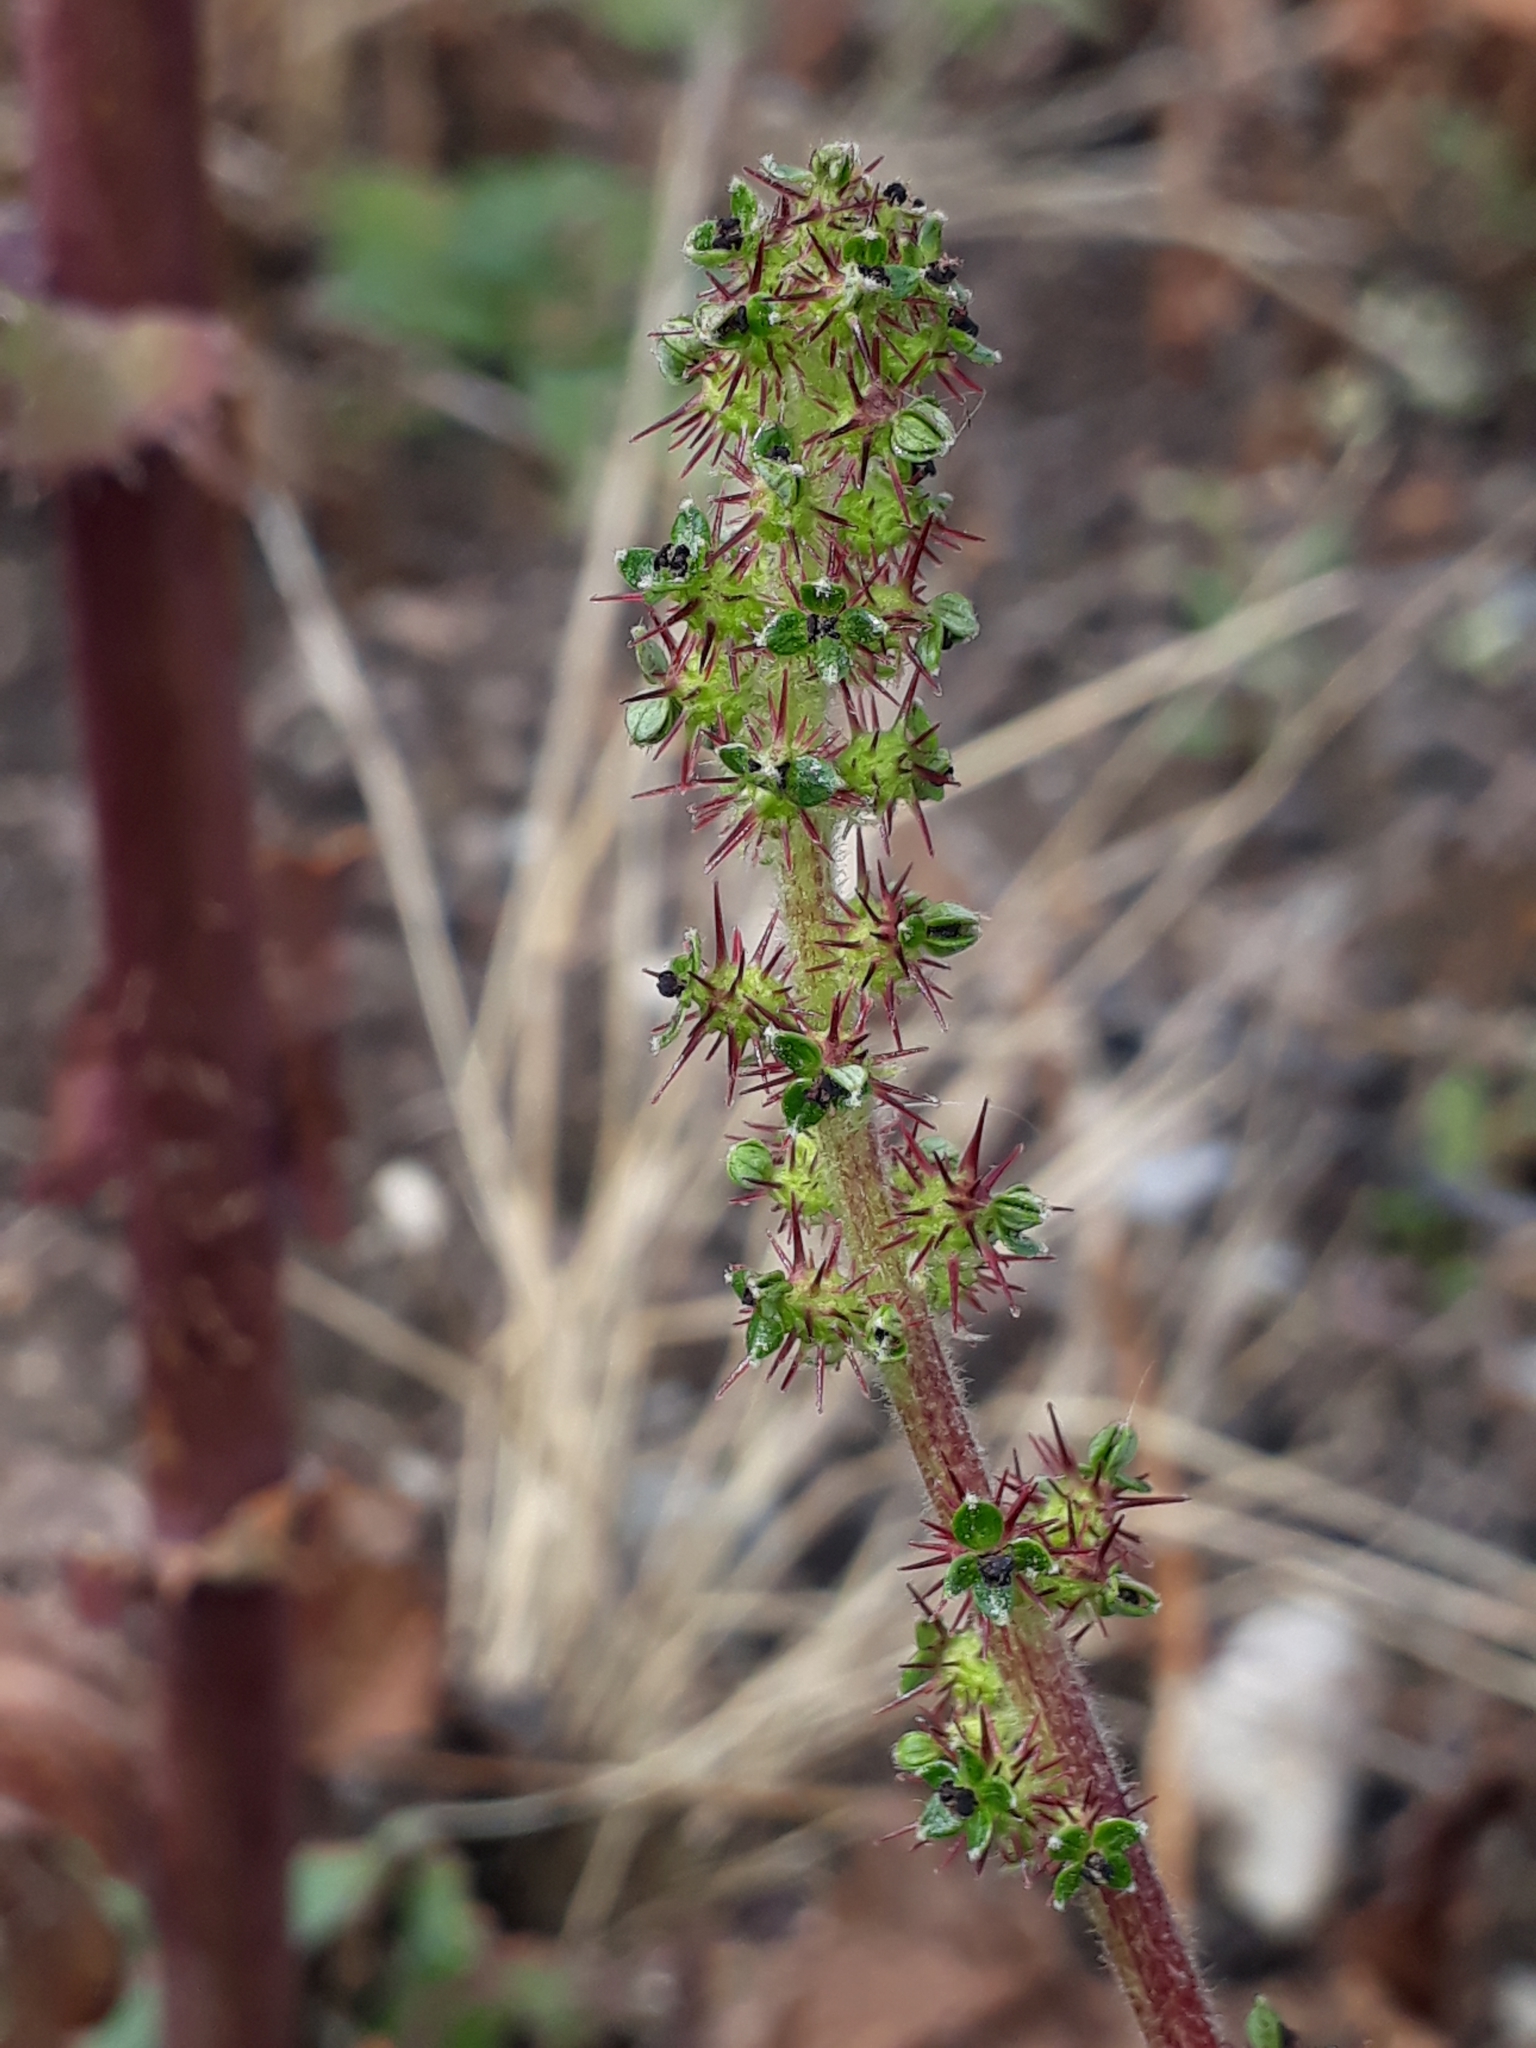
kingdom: Plantae
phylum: Tracheophyta
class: Magnoliopsida
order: Rosales
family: Rosaceae
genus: Acaena
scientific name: Acaena agnipila
